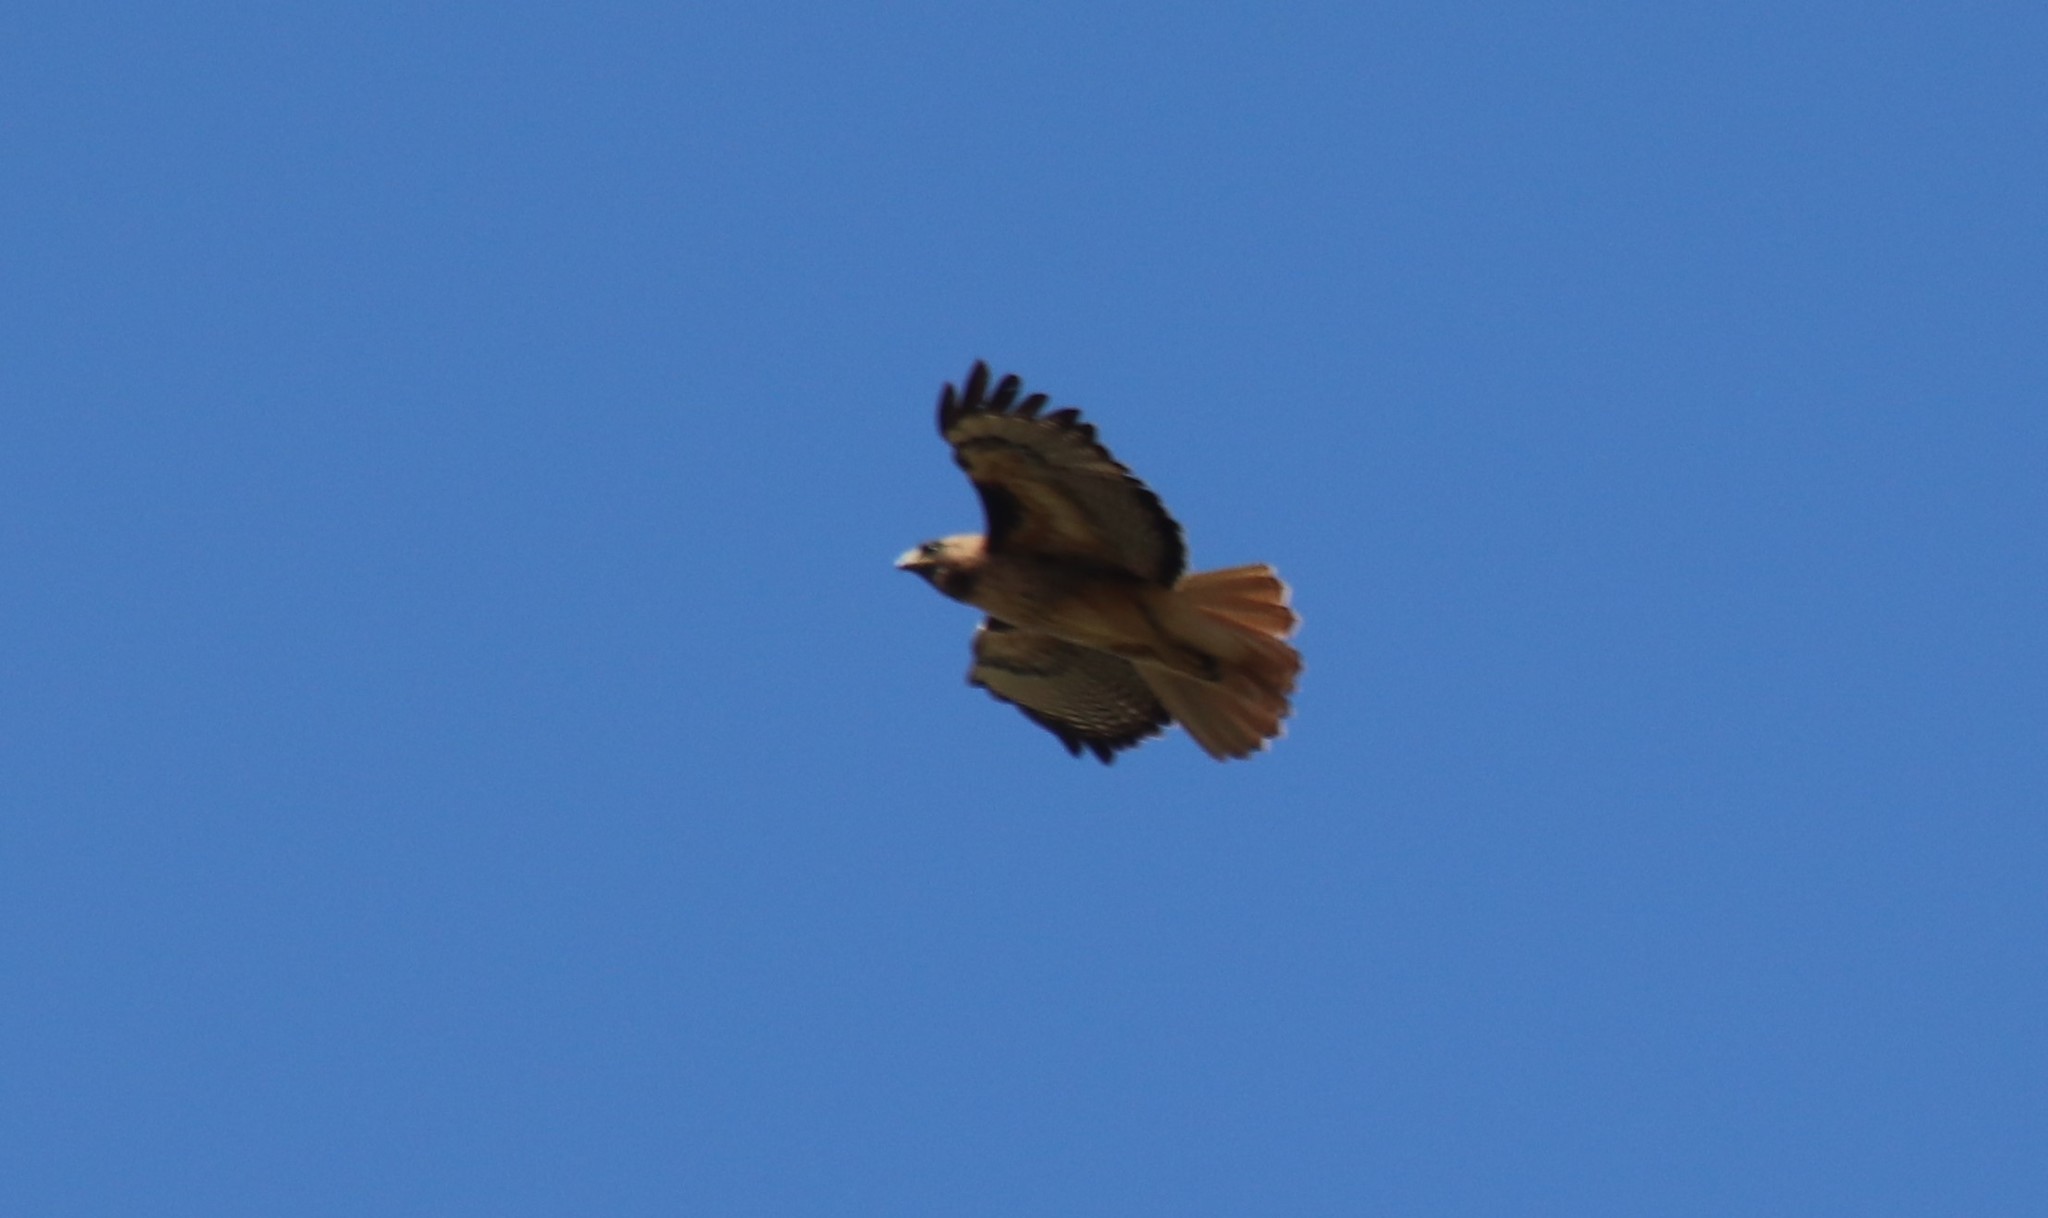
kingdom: Animalia
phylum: Chordata
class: Aves
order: Accipitriformes
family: Accipitridae
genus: Buteo
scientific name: Buteo jamaicensis
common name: Red-tailed hawk
